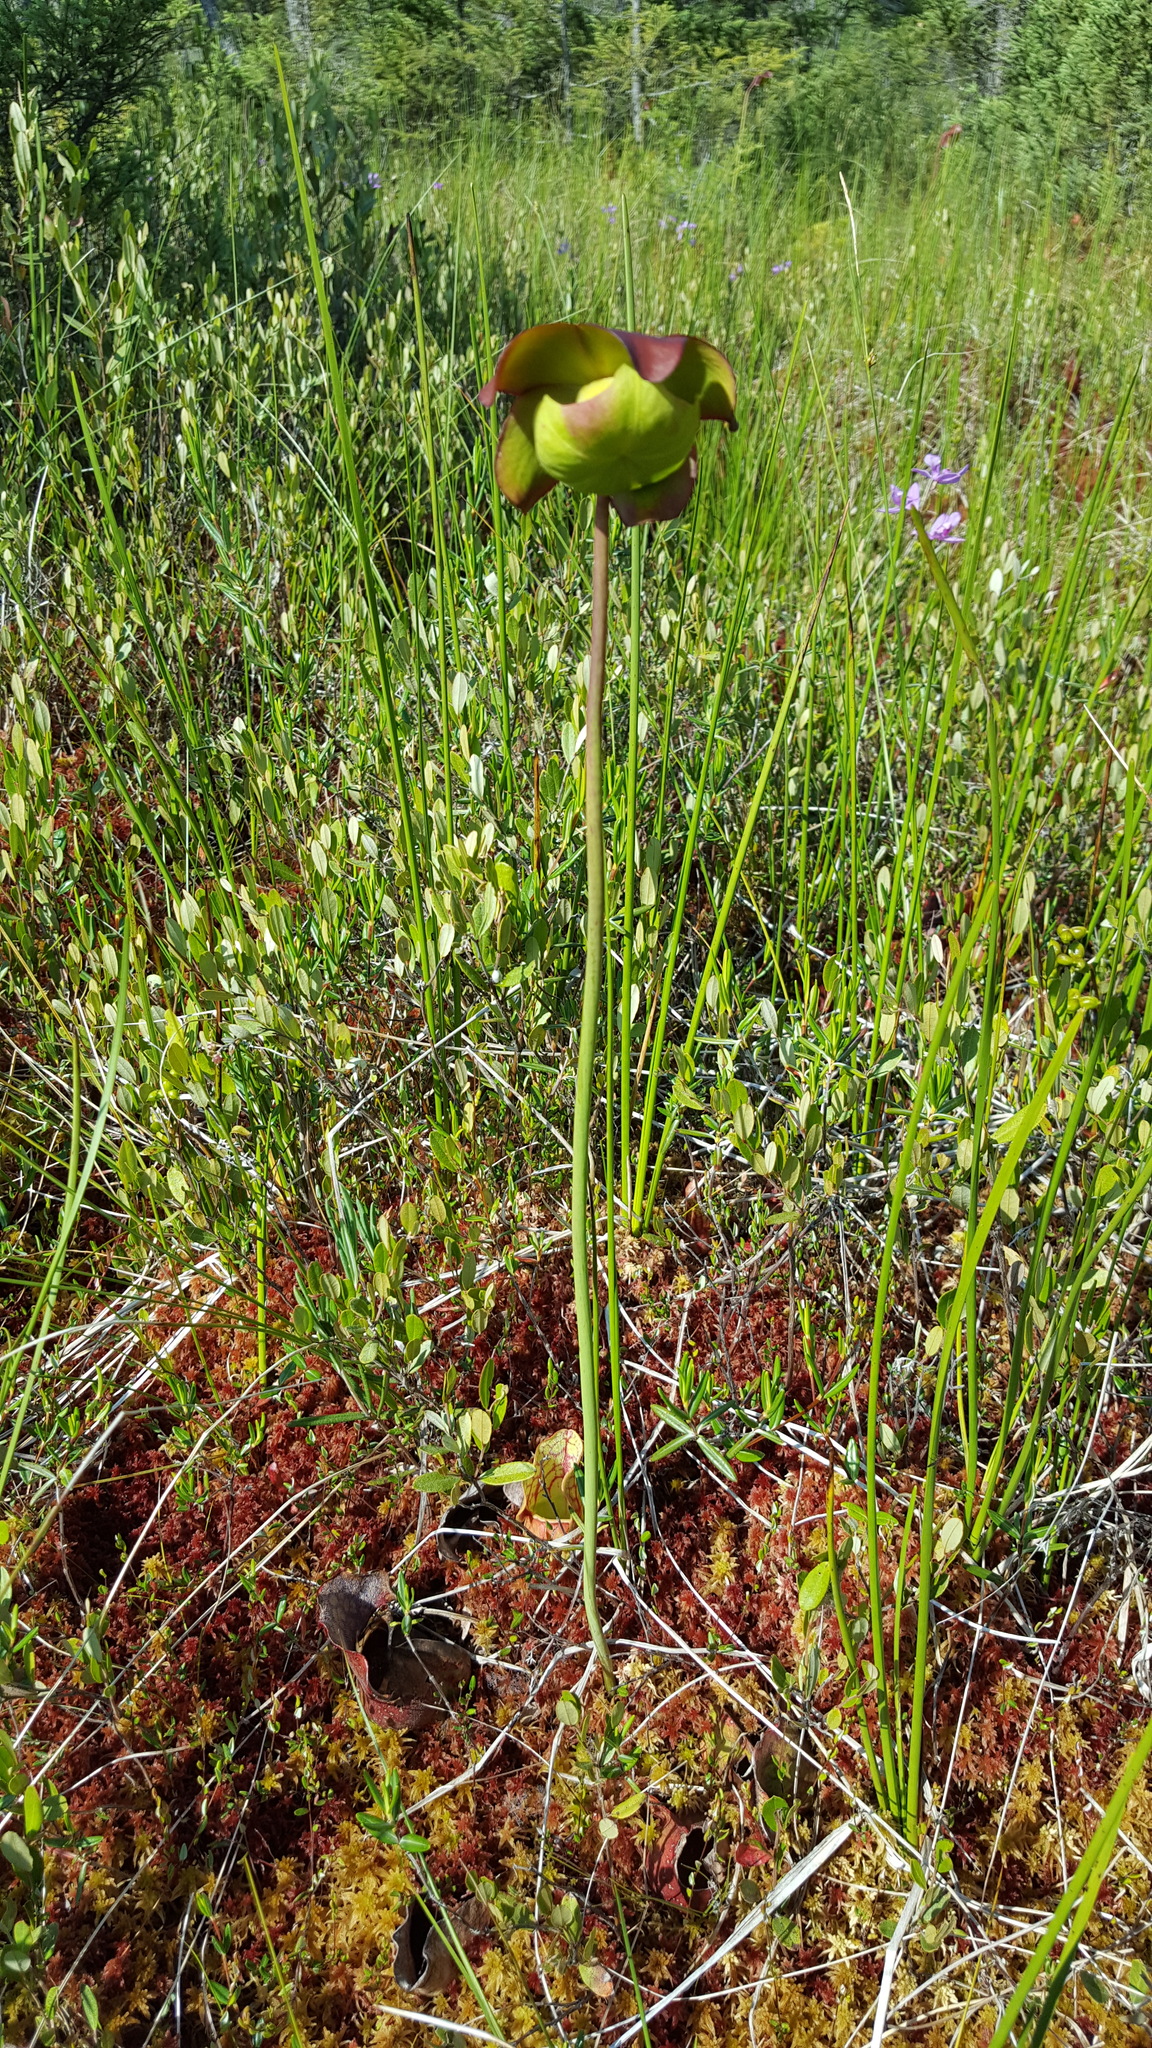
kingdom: Plantae
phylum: Tracheophyta
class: Magnoliopsida
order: Ericales
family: Sarraceniaceae
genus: Sarracenia
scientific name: Sarracenia purpurea
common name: Pitcherplant
